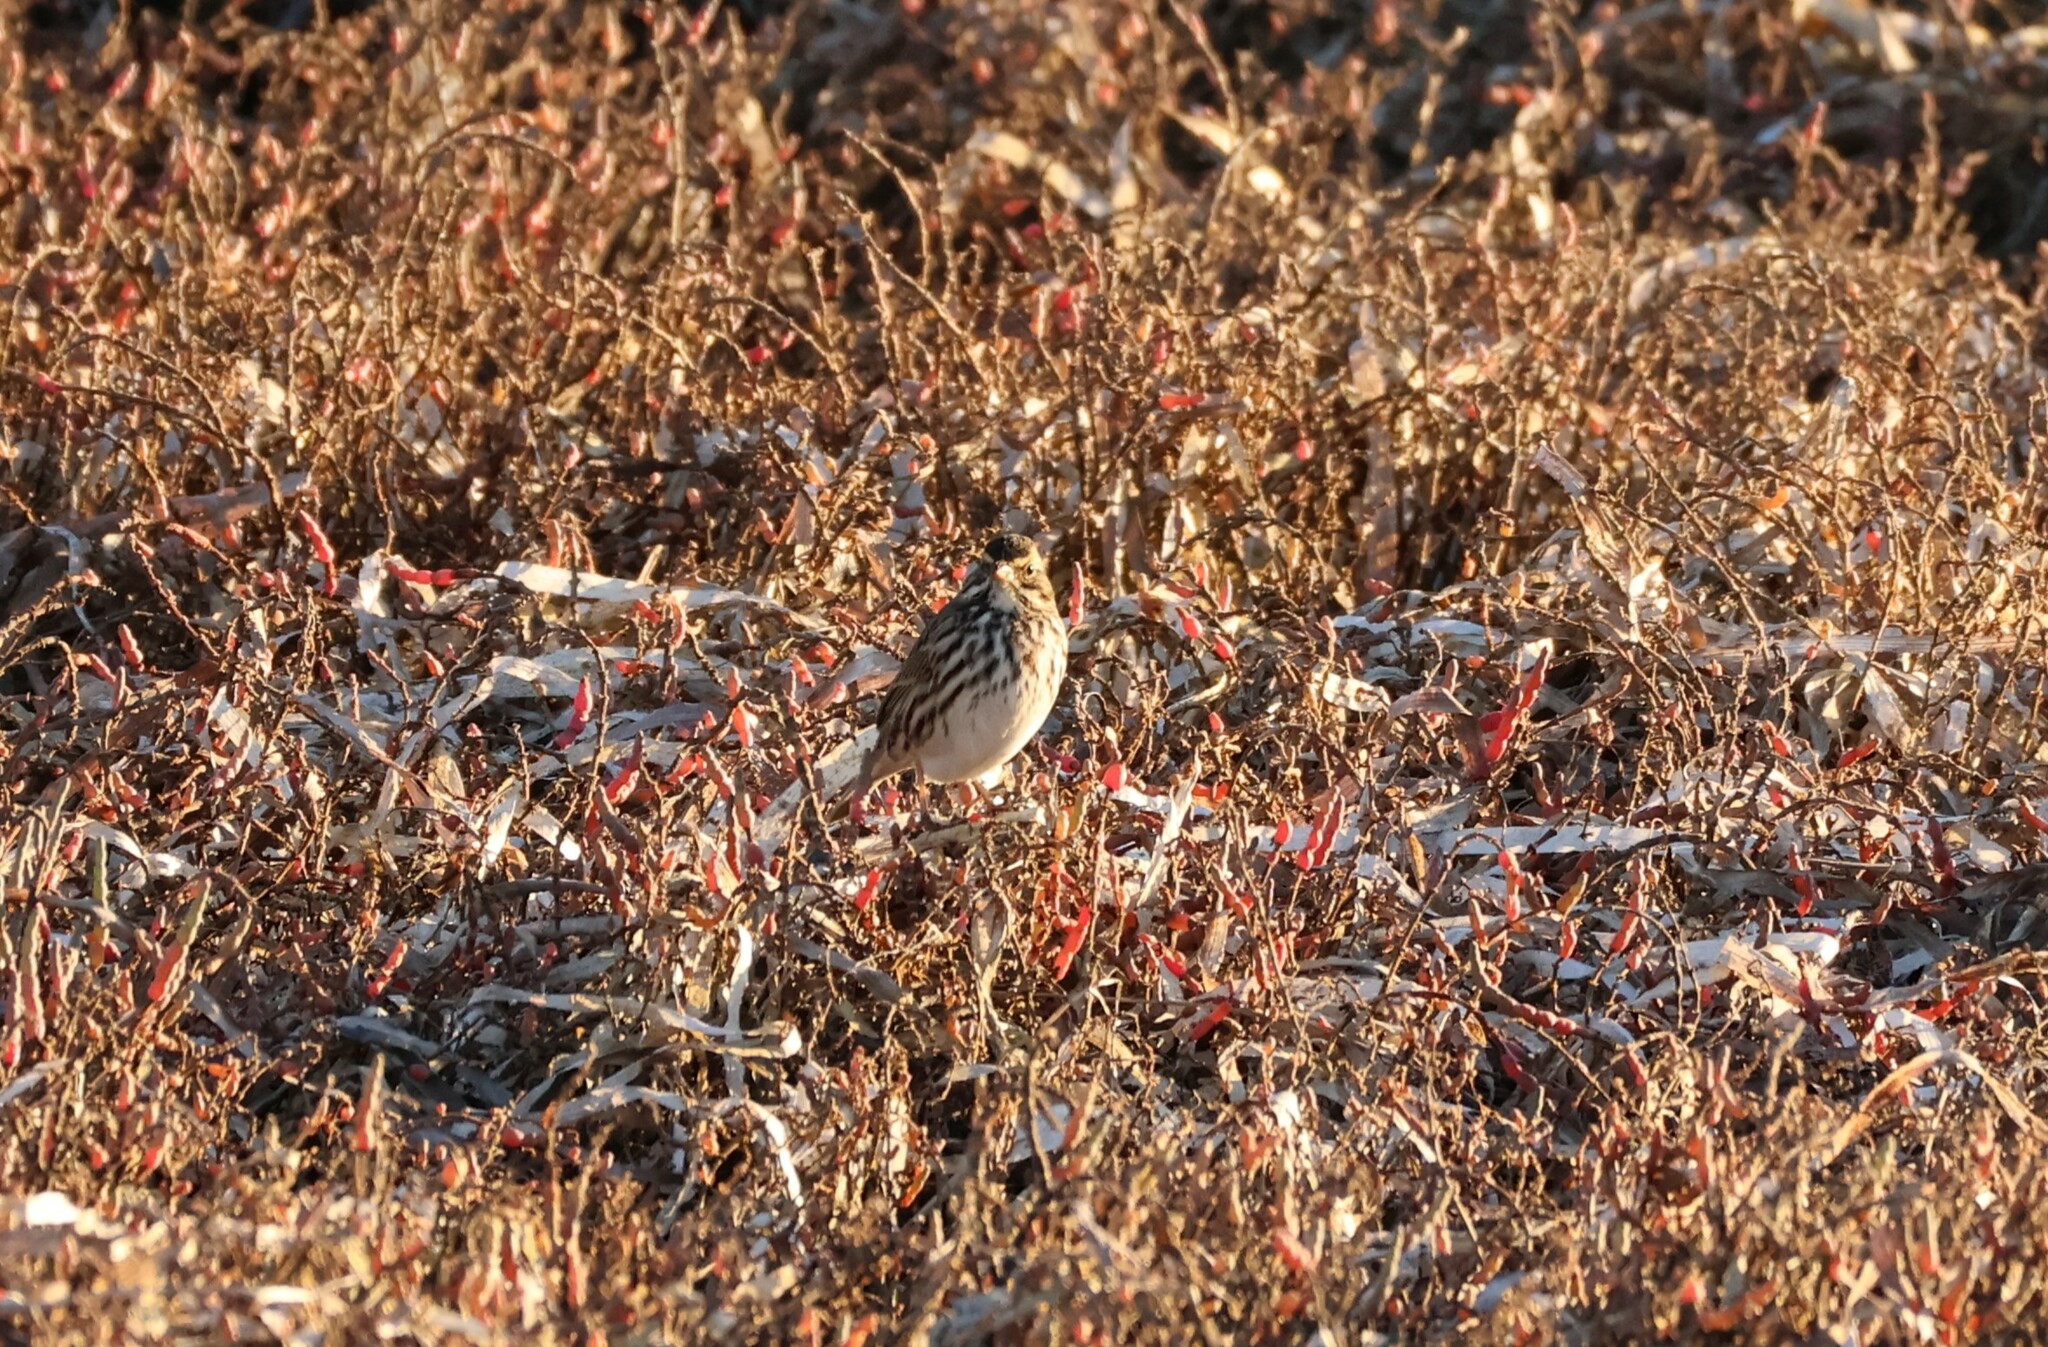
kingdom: Animalia
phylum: Chordata
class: Aves
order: Passeriformes
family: Passerellidae
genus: Passerculus
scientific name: Passerculus sandwichensis
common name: Savannah sparrow
